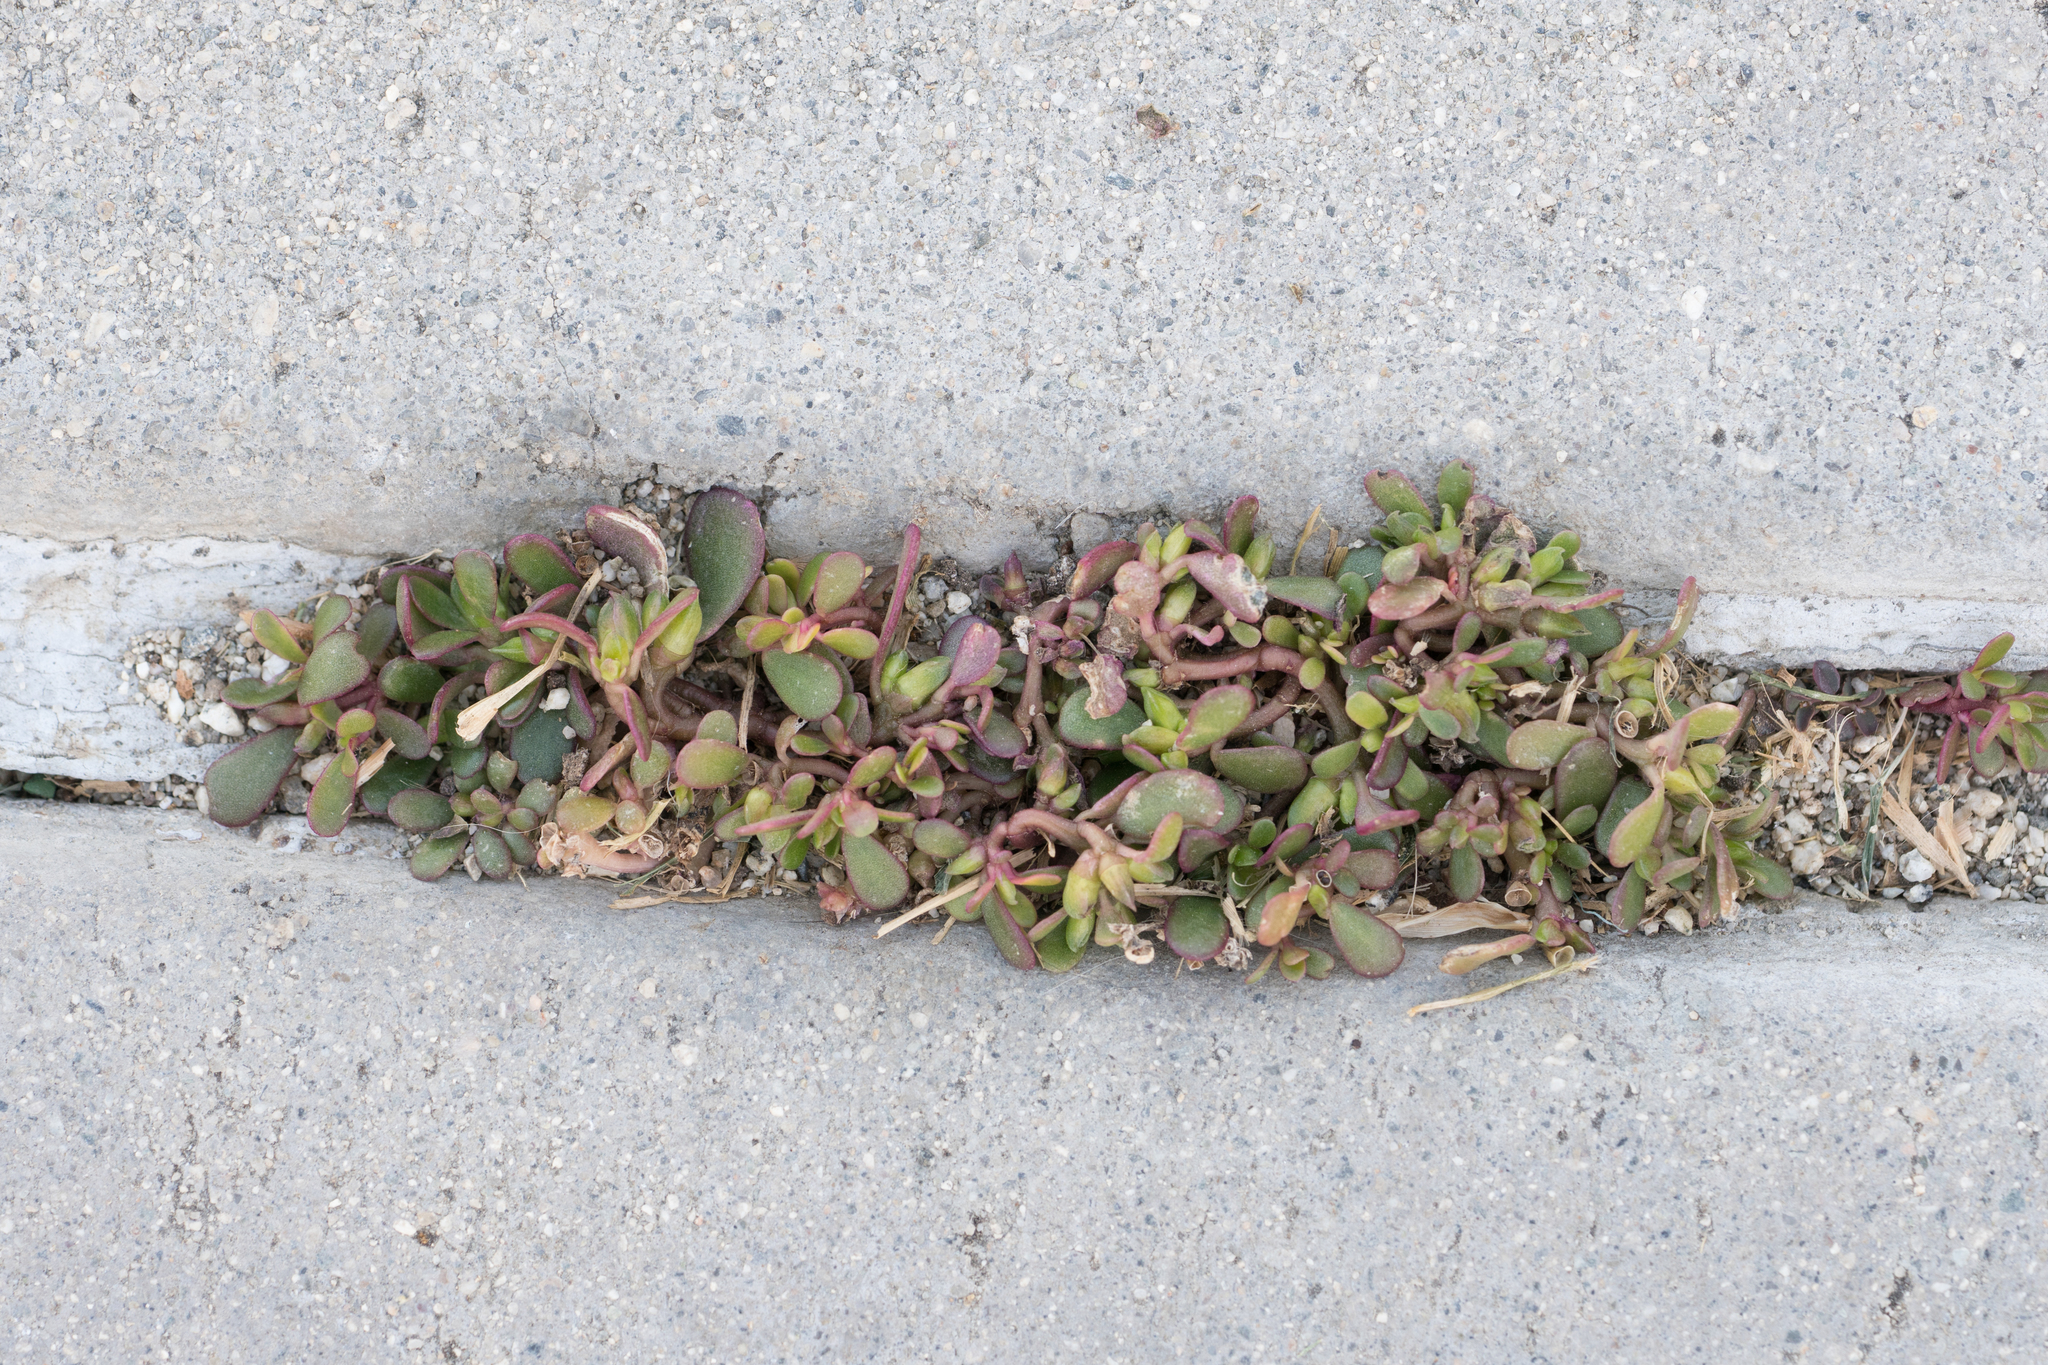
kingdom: Plantae
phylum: Tracheophyta
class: Magnoliopsida
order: Caryophyllales
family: Portulacaceae
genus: Portulaca
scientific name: Portulaca oleracea
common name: Common purslane
